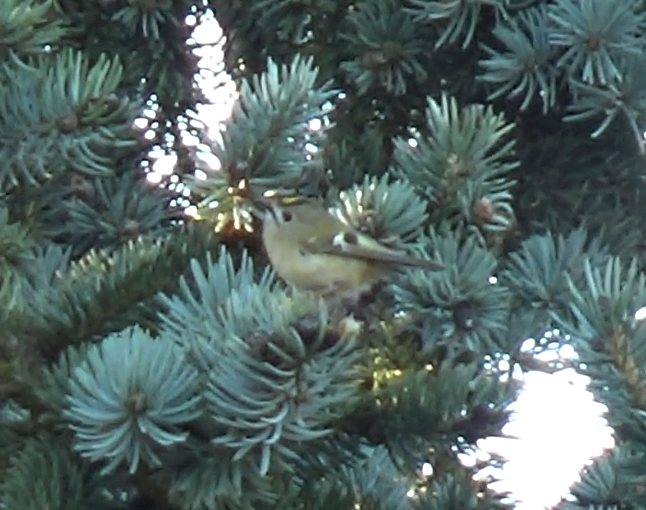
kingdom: Animalia
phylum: Chordata
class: Aves
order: Passeriformes
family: Regulidae
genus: Regulus
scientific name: Regulus regulus
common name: Goldcrest
